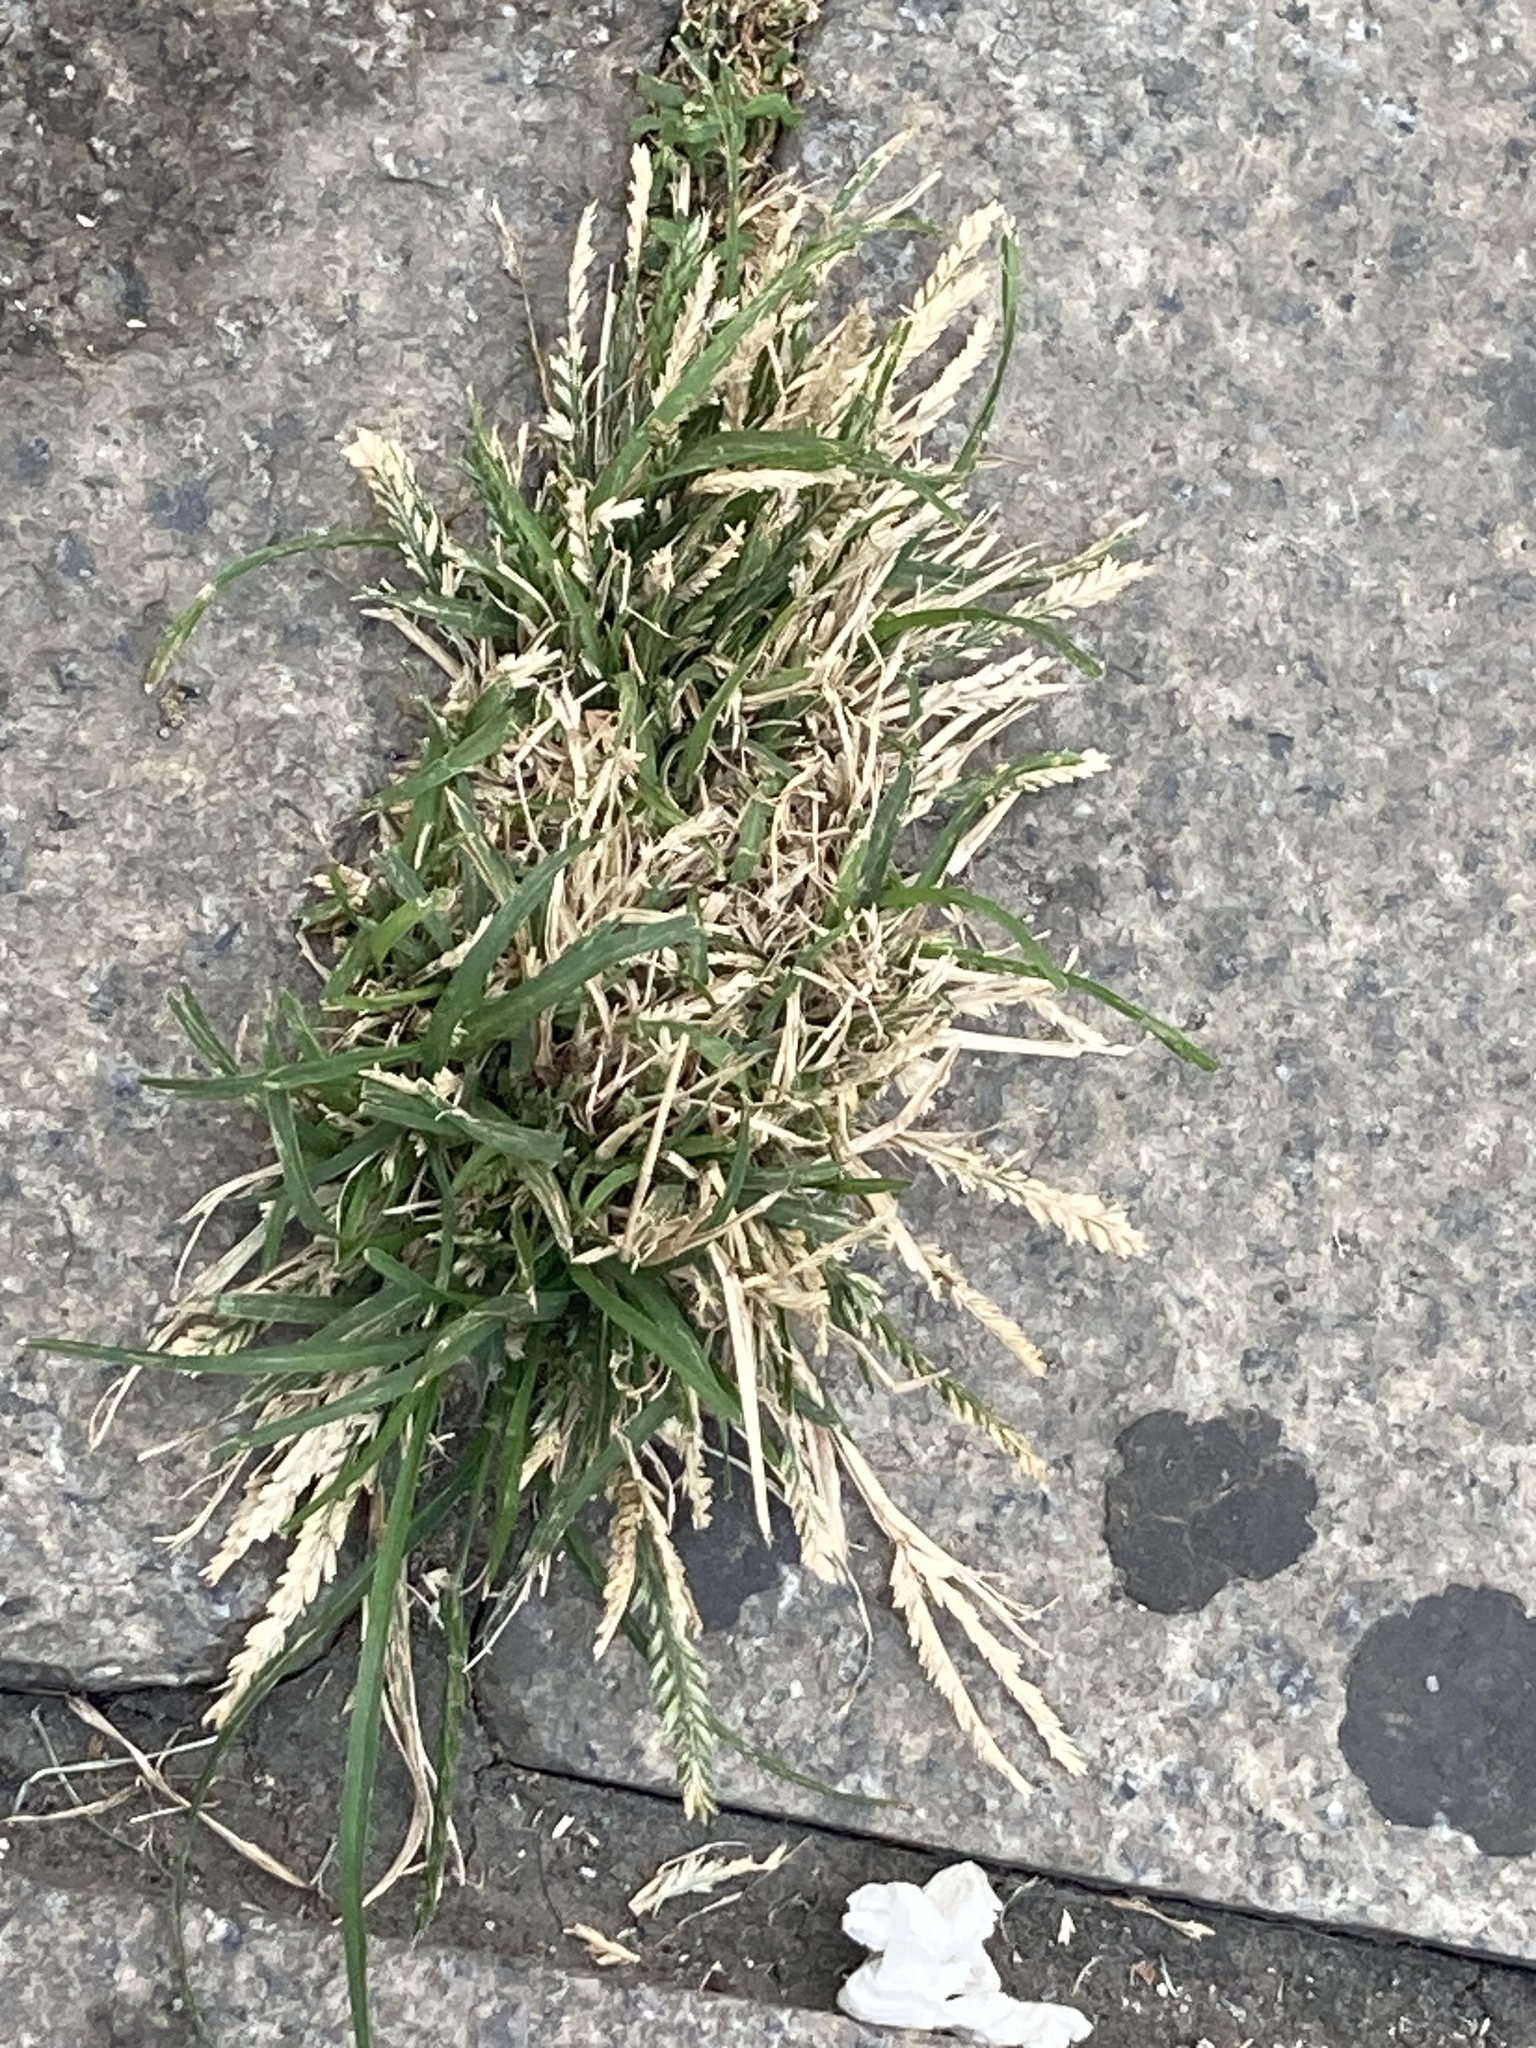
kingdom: Plantae
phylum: Tracheophyta
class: Liliopsida
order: Poales
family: Poaceae
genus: Eleusine
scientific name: Eleusine indica
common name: Yard-grass
